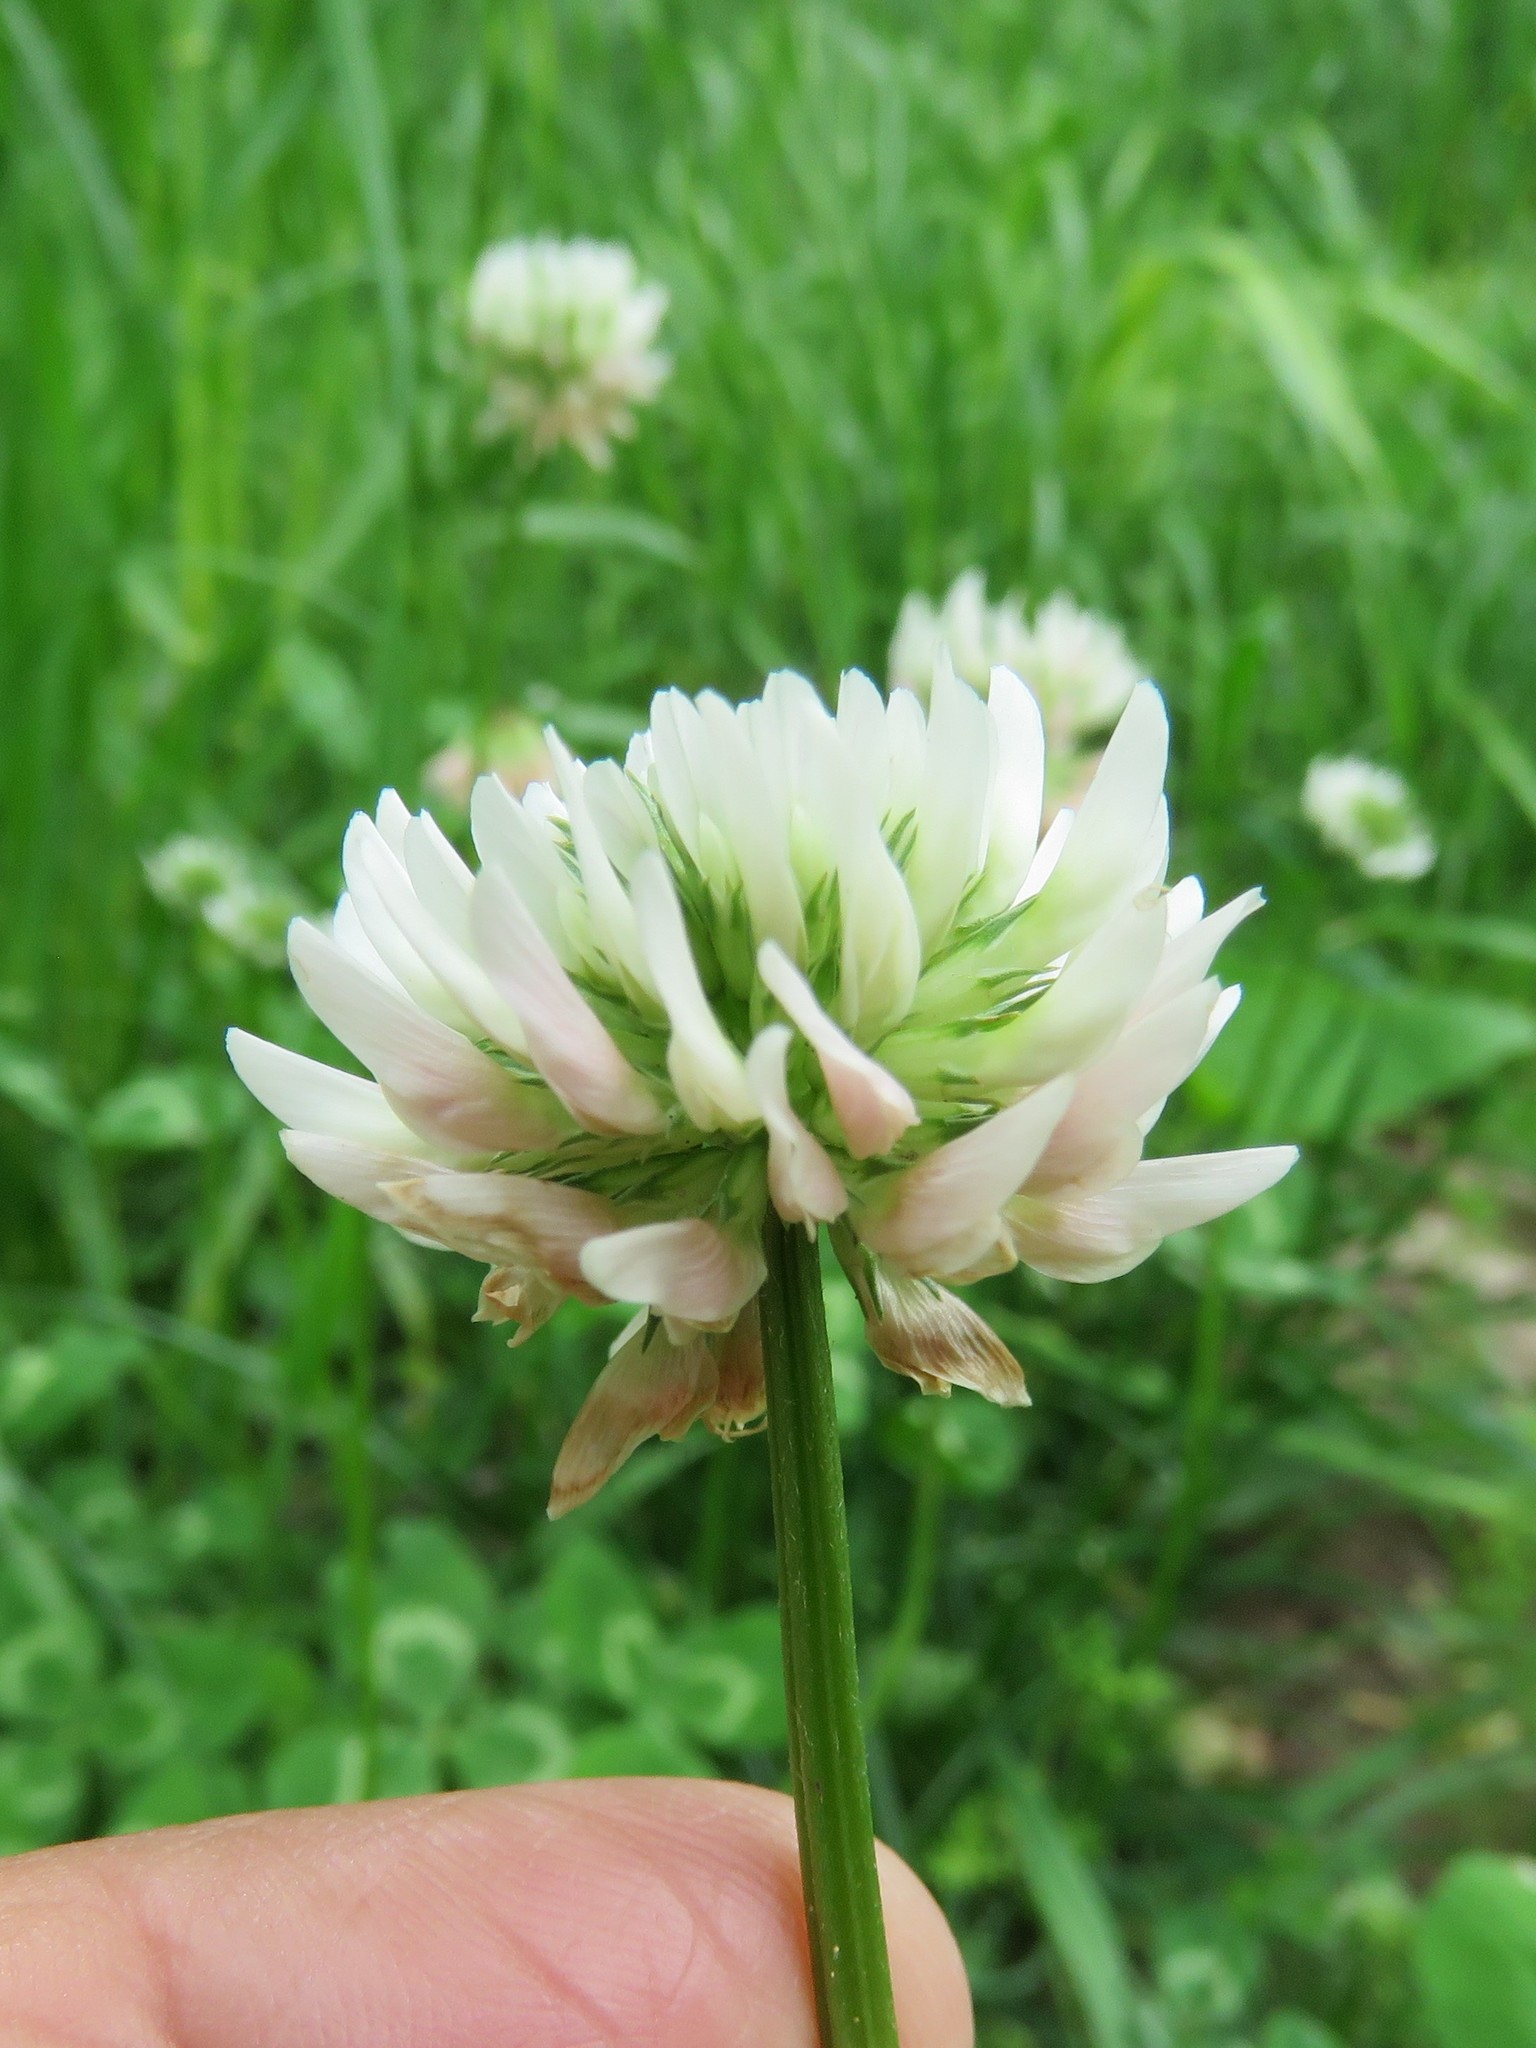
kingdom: Plantae
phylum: Tracheophyta
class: Magnoliopsida
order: Fabales
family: Fabaceae
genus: Trifolium
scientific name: Trifolium repens
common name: White clover
